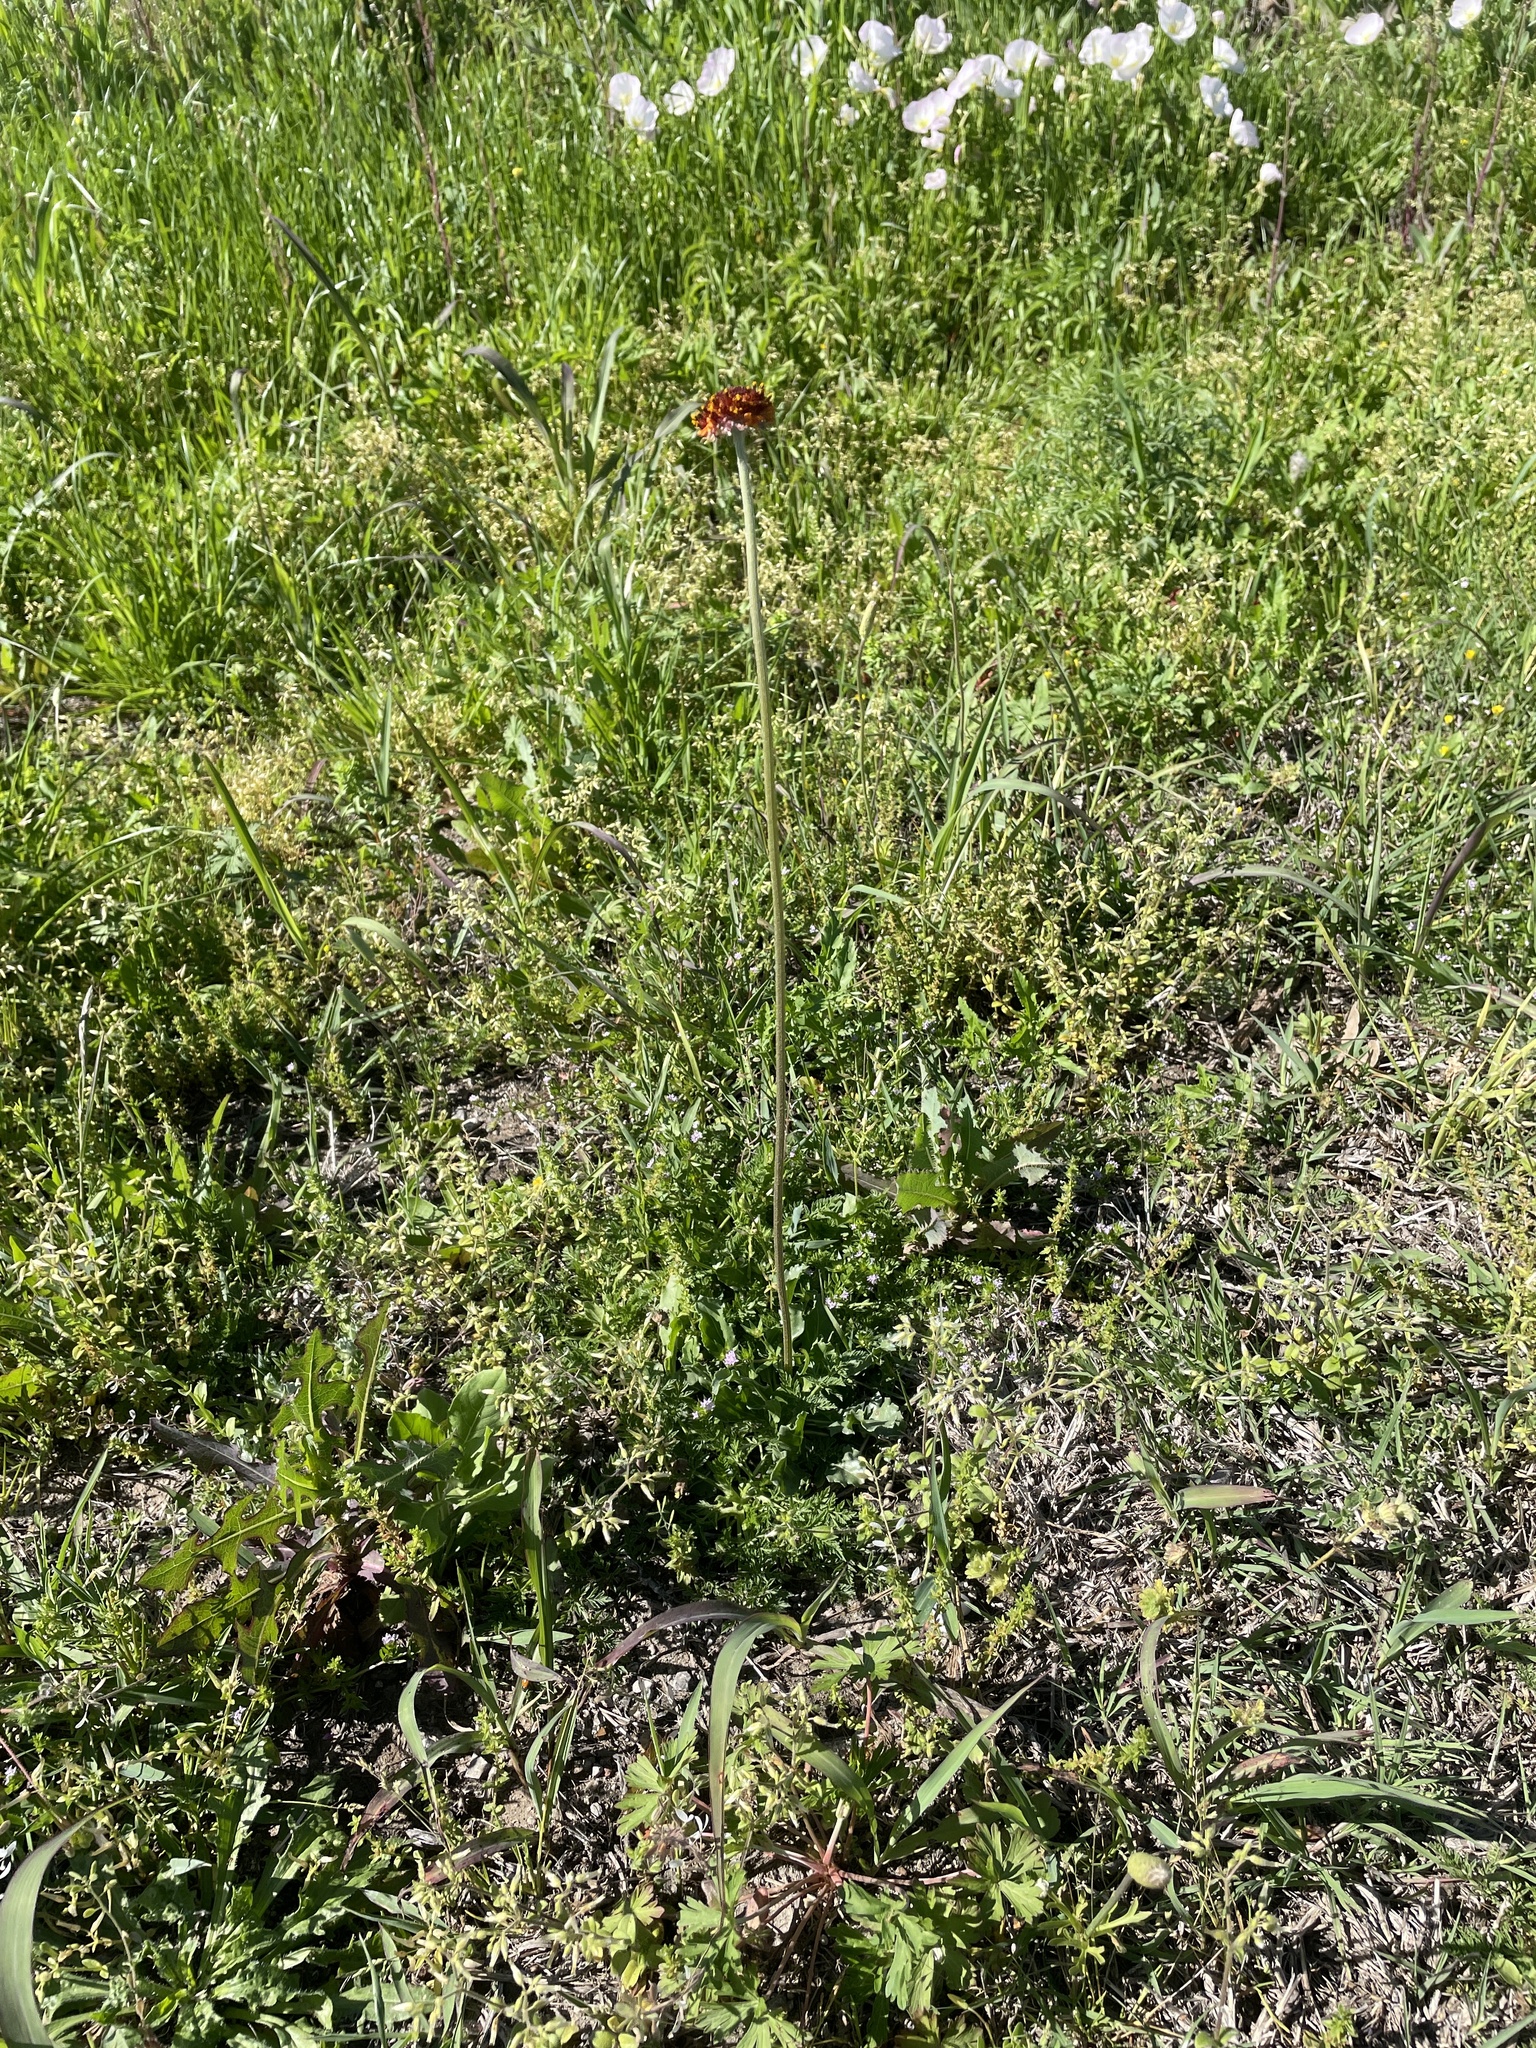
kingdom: Plantae
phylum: Tracheophyta
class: Magnoliopsida
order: Asterales
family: Asteraceae
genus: Gaillardia
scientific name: Gaillardia suavis
